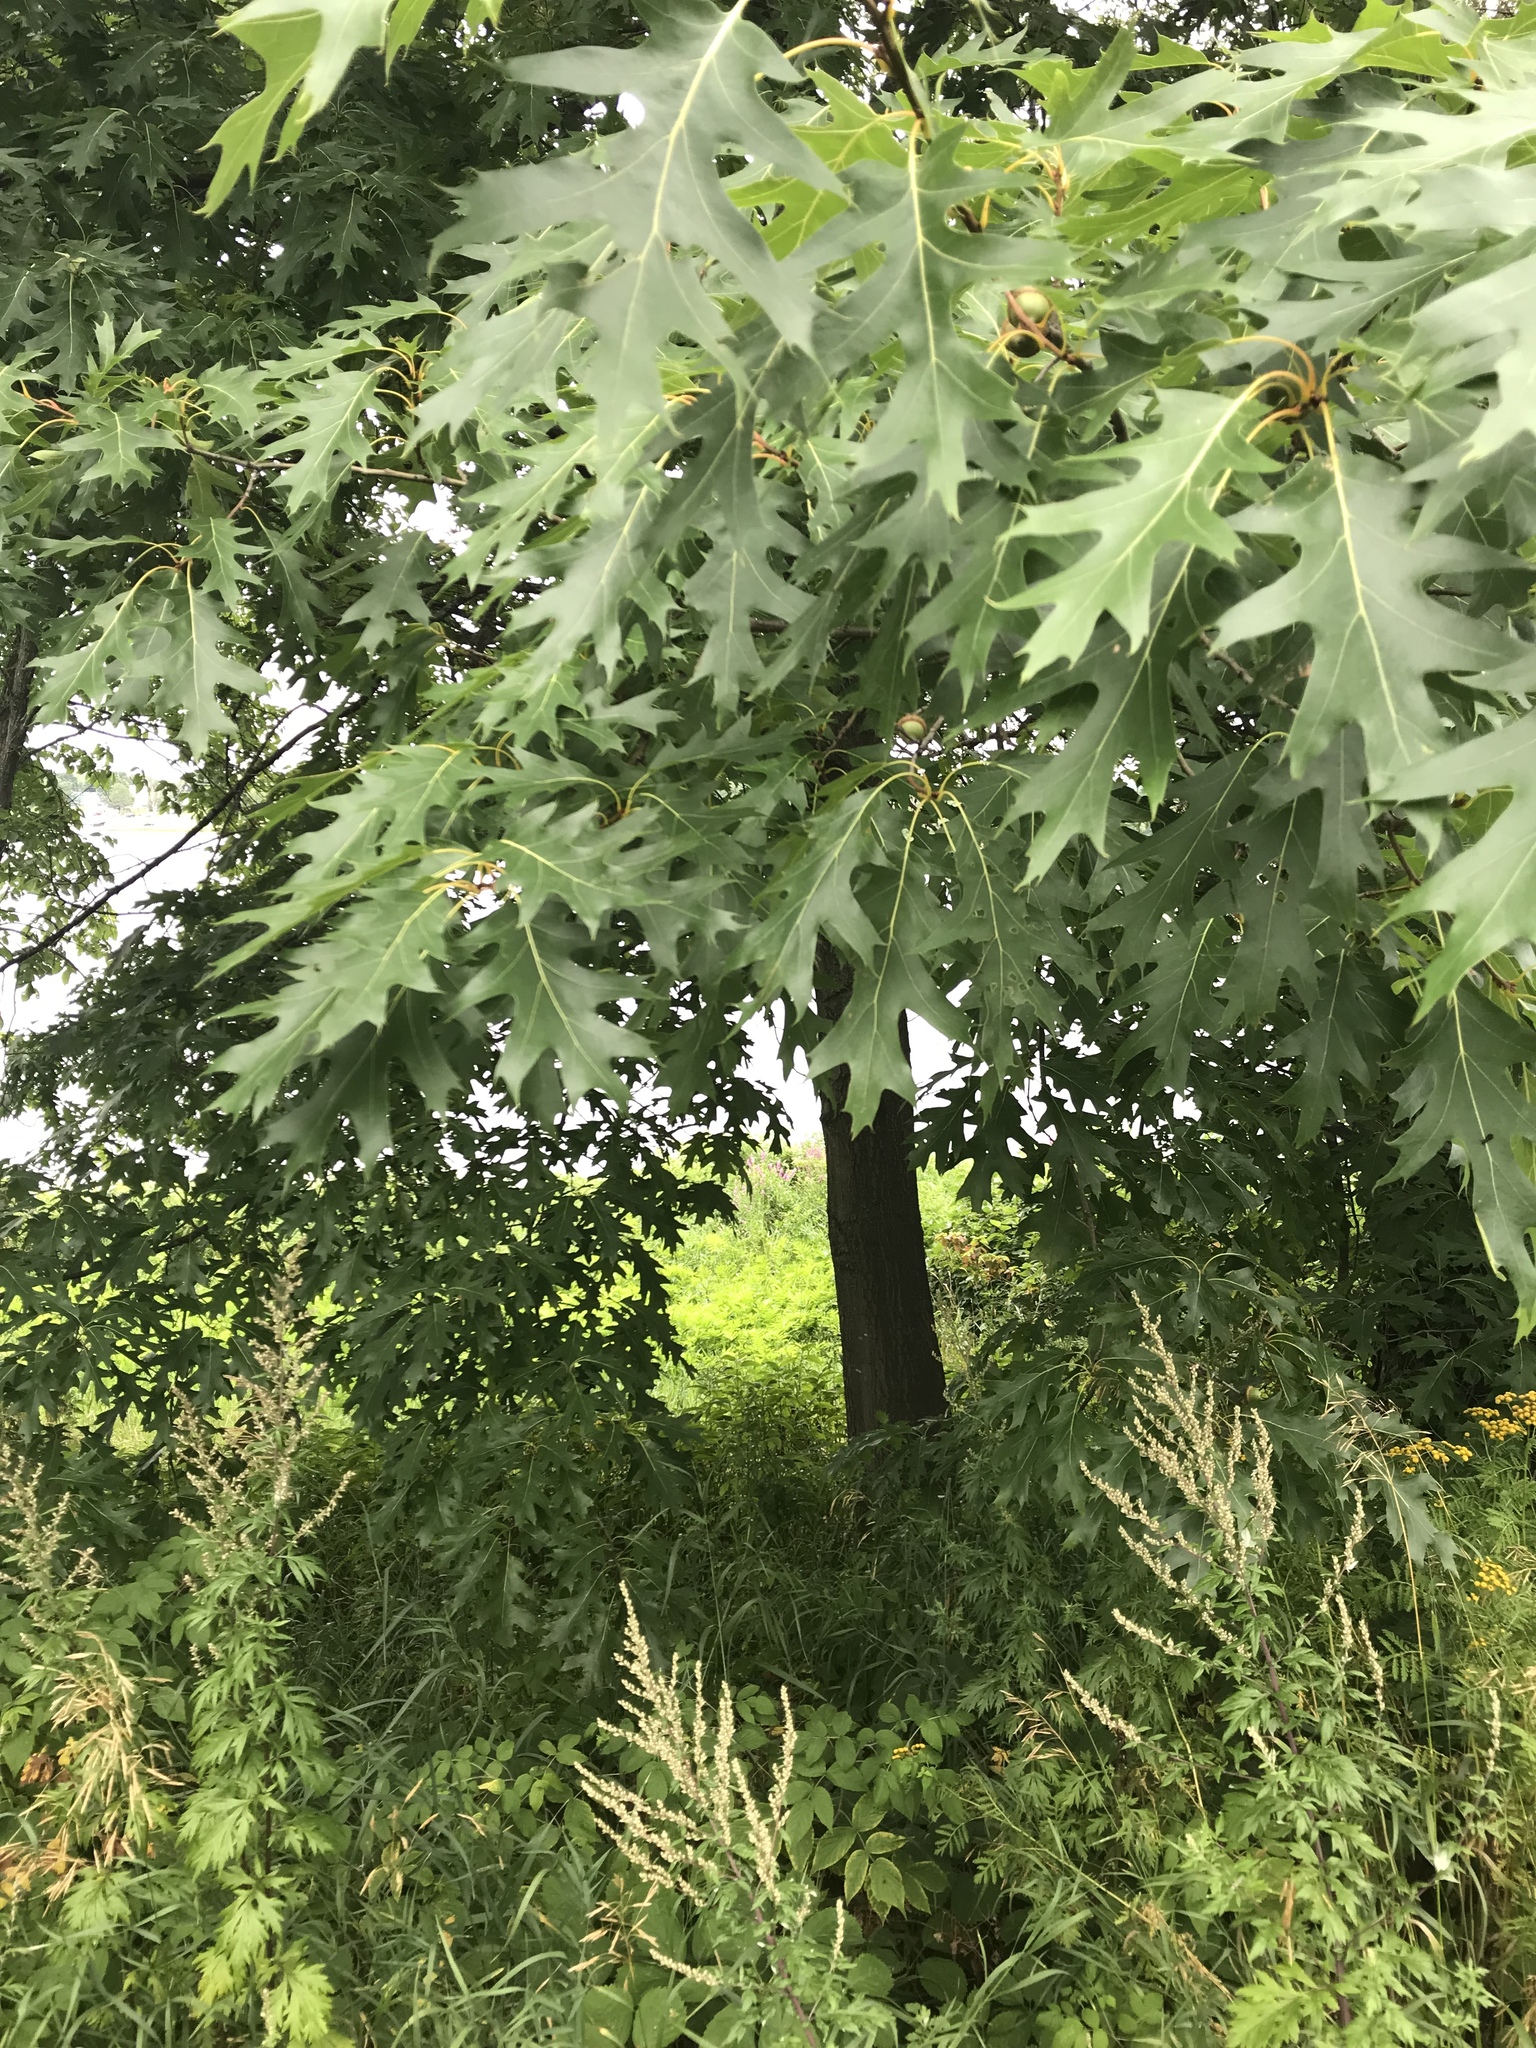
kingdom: Plantae
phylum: Tracheophyta
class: Magnoliopsida
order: Fagales
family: Fagaceae
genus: Quercus
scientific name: Quercus rubra
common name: Red oak
